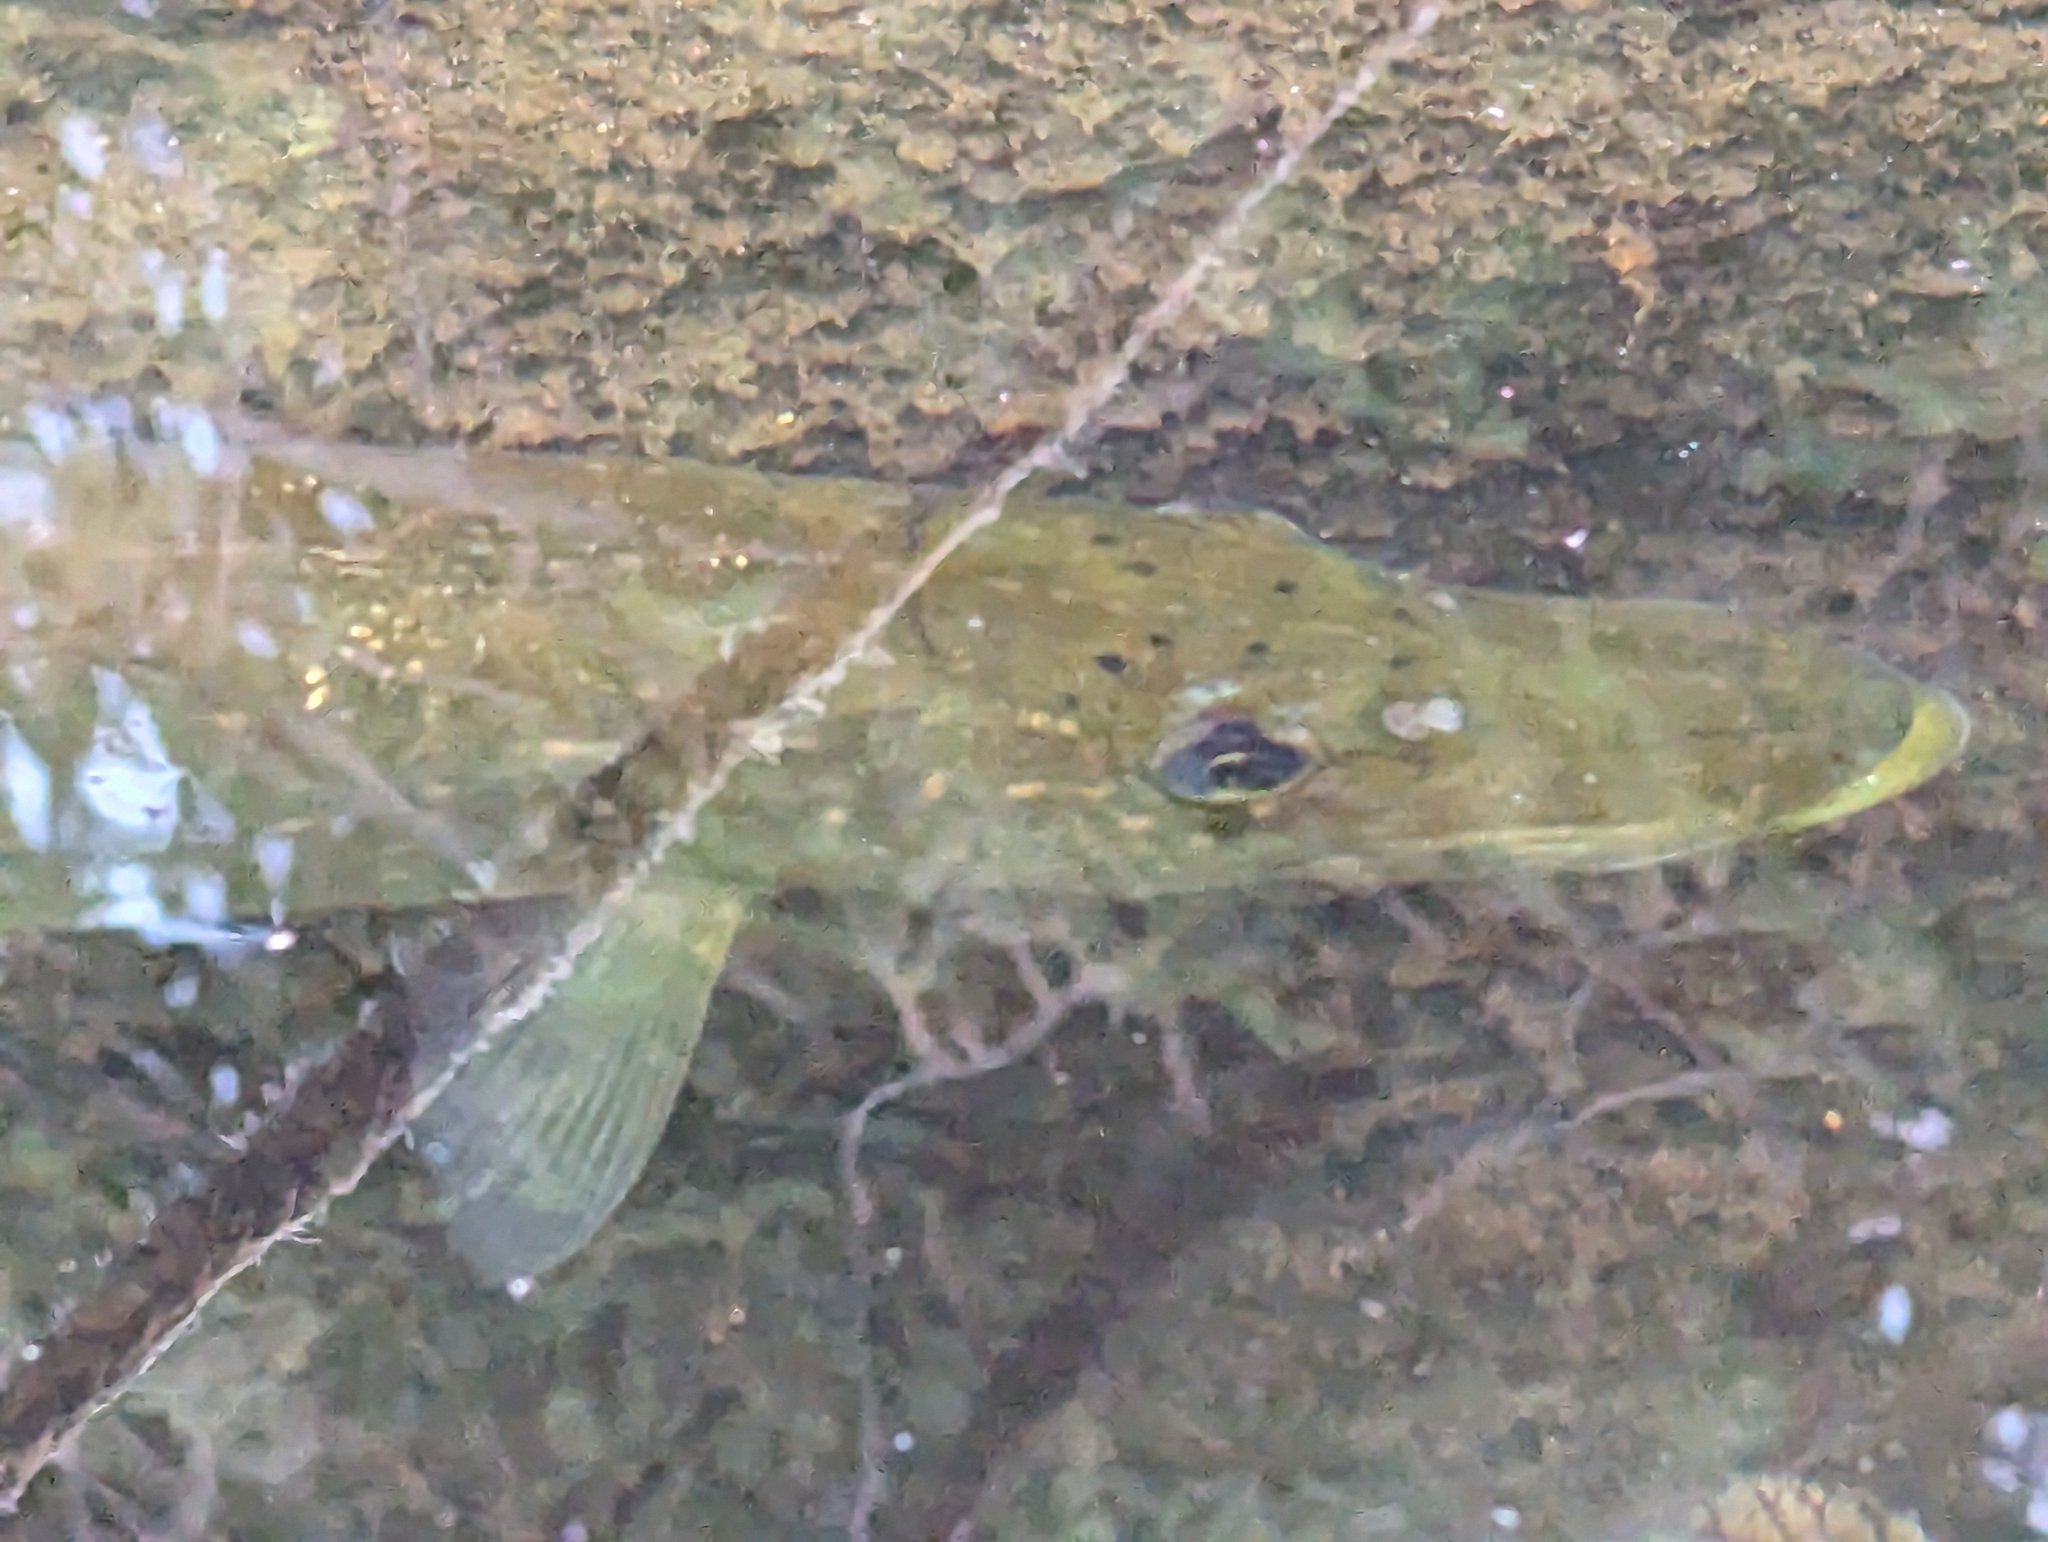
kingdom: Animalia
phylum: Chordata
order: Esociformes
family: Esocidae
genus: Esox
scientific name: Esox lucius
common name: Northern pike
